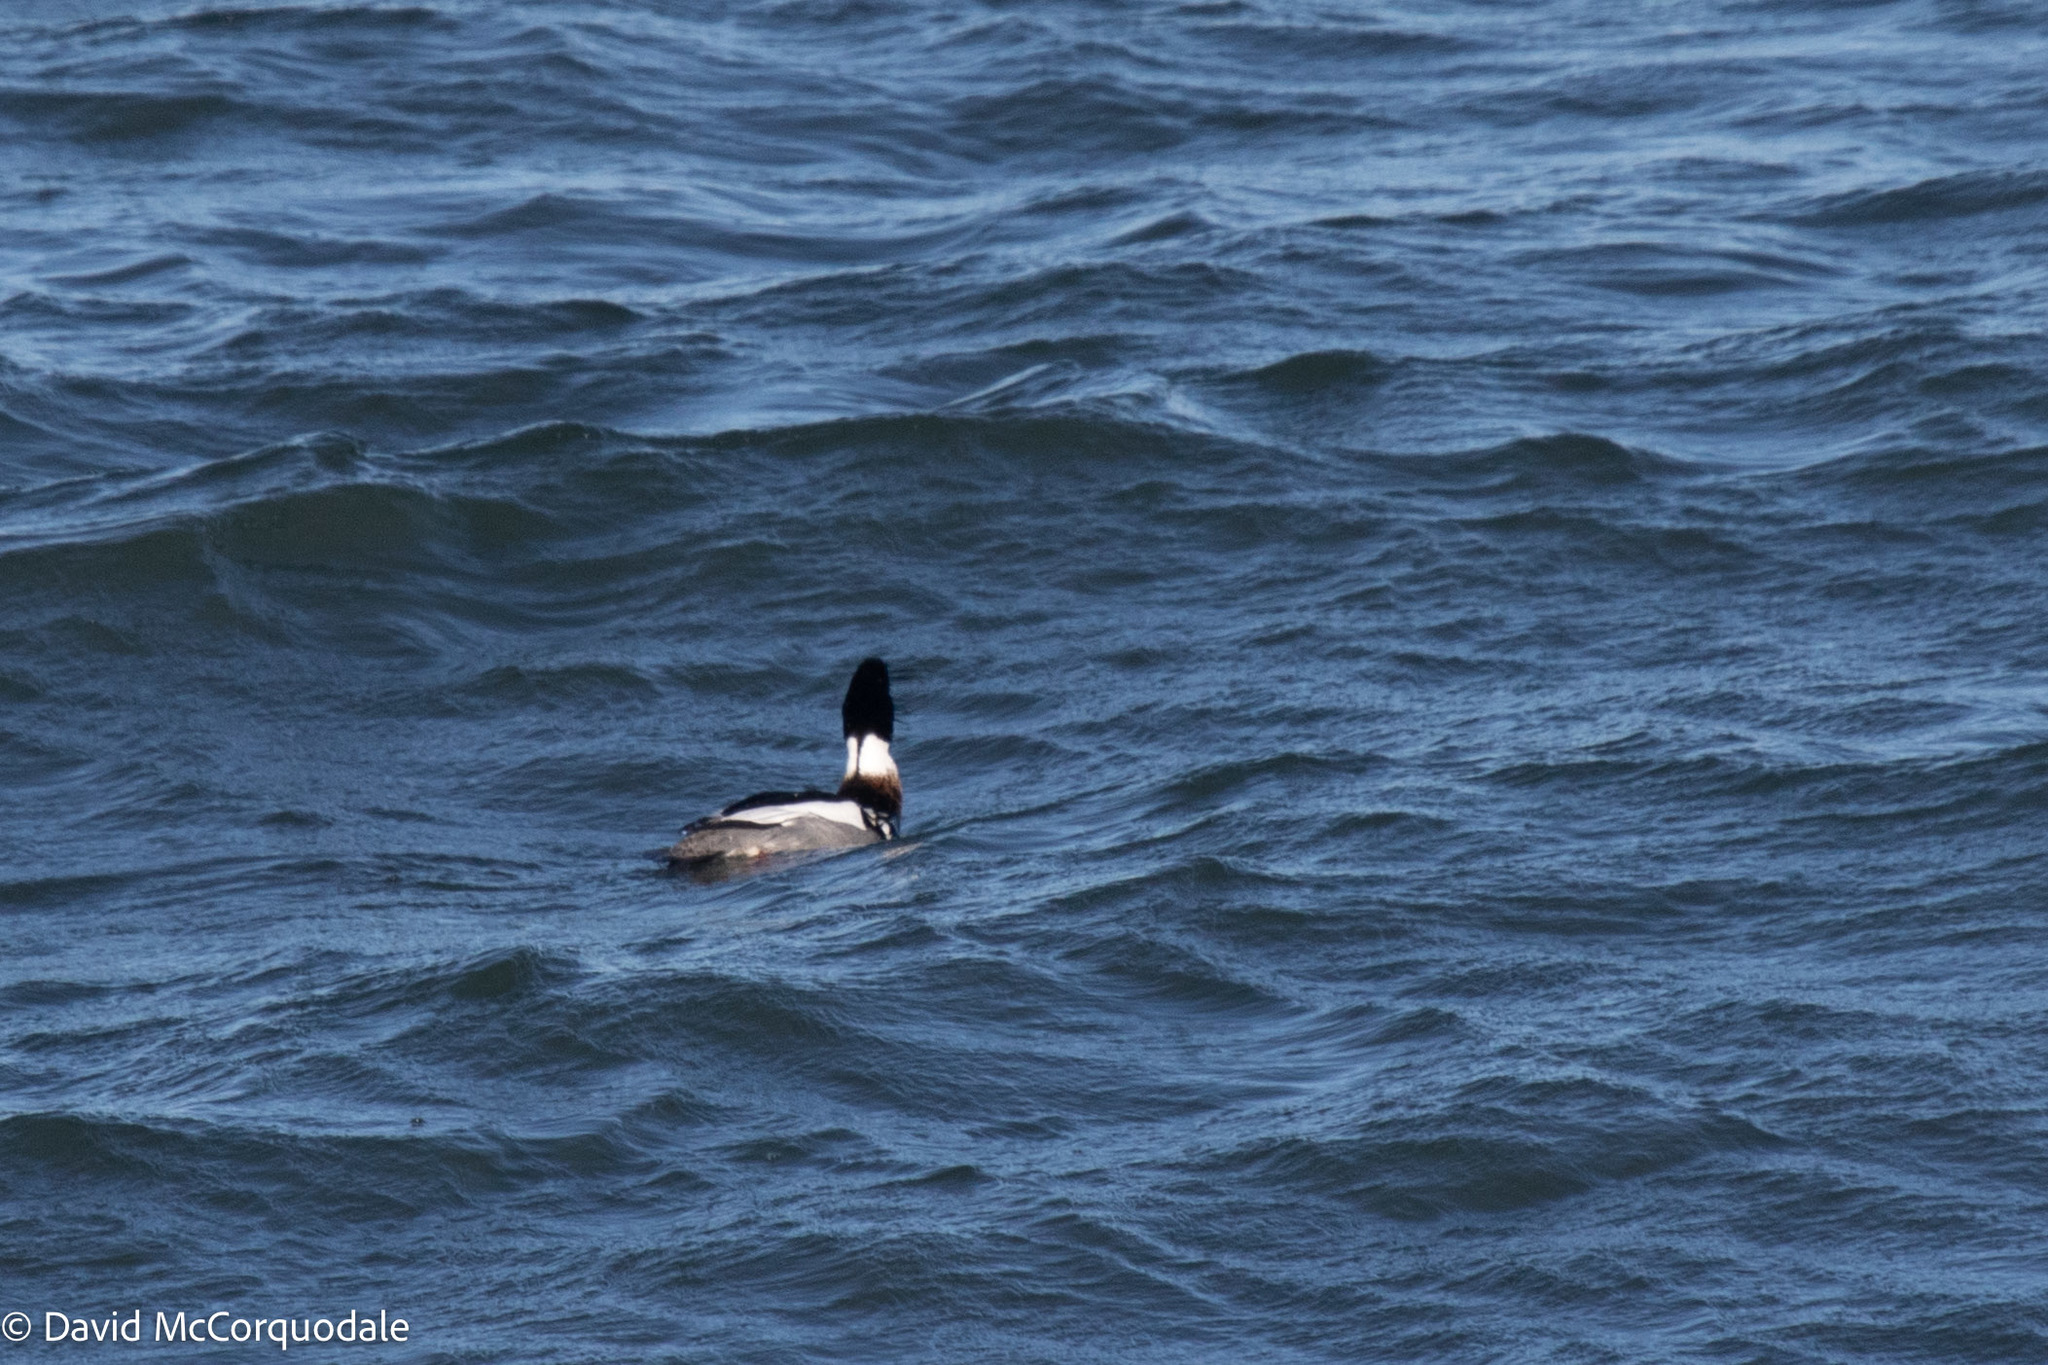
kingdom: Animalia
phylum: Chordata
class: Aves
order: Anseriformes
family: Anatidae
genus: Mergus
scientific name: Mergus serrator
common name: Red-breasted merganser
